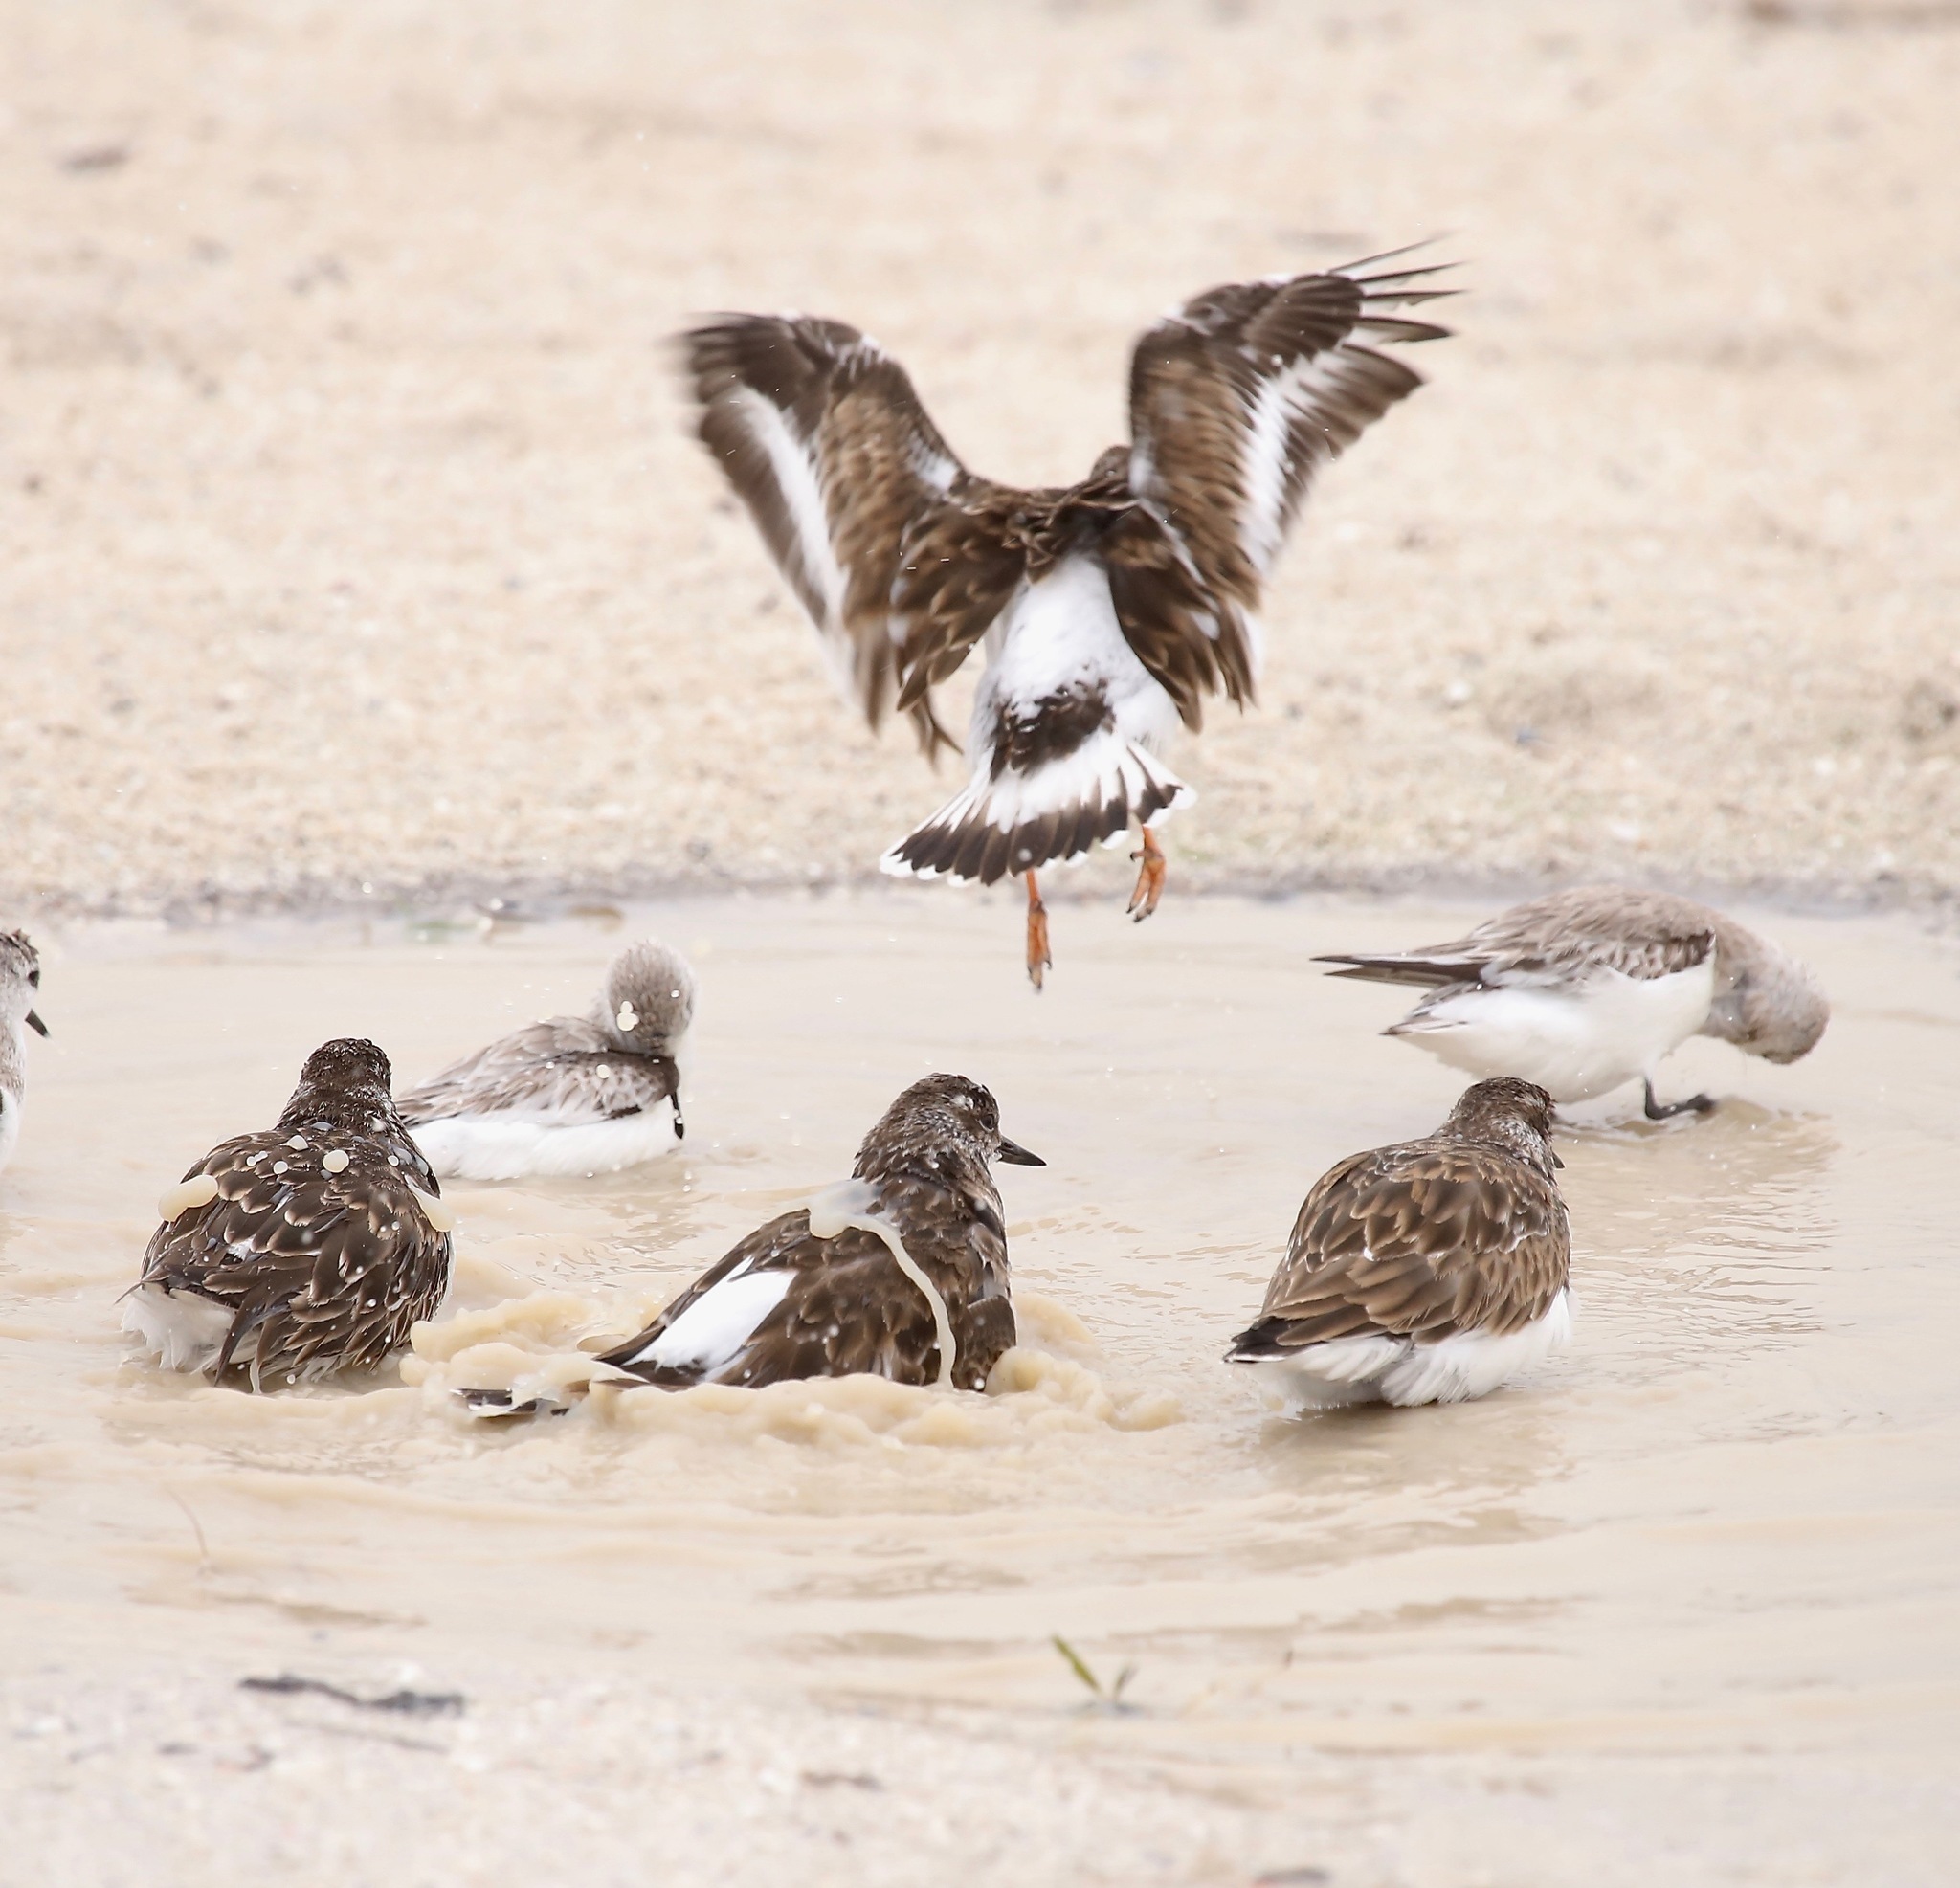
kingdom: Animalia
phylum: Chordata
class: Aves
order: Charadriiformes
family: Scolopacidae
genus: Arenaria
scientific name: Arenaria interpres
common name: Ruddy turnstone
